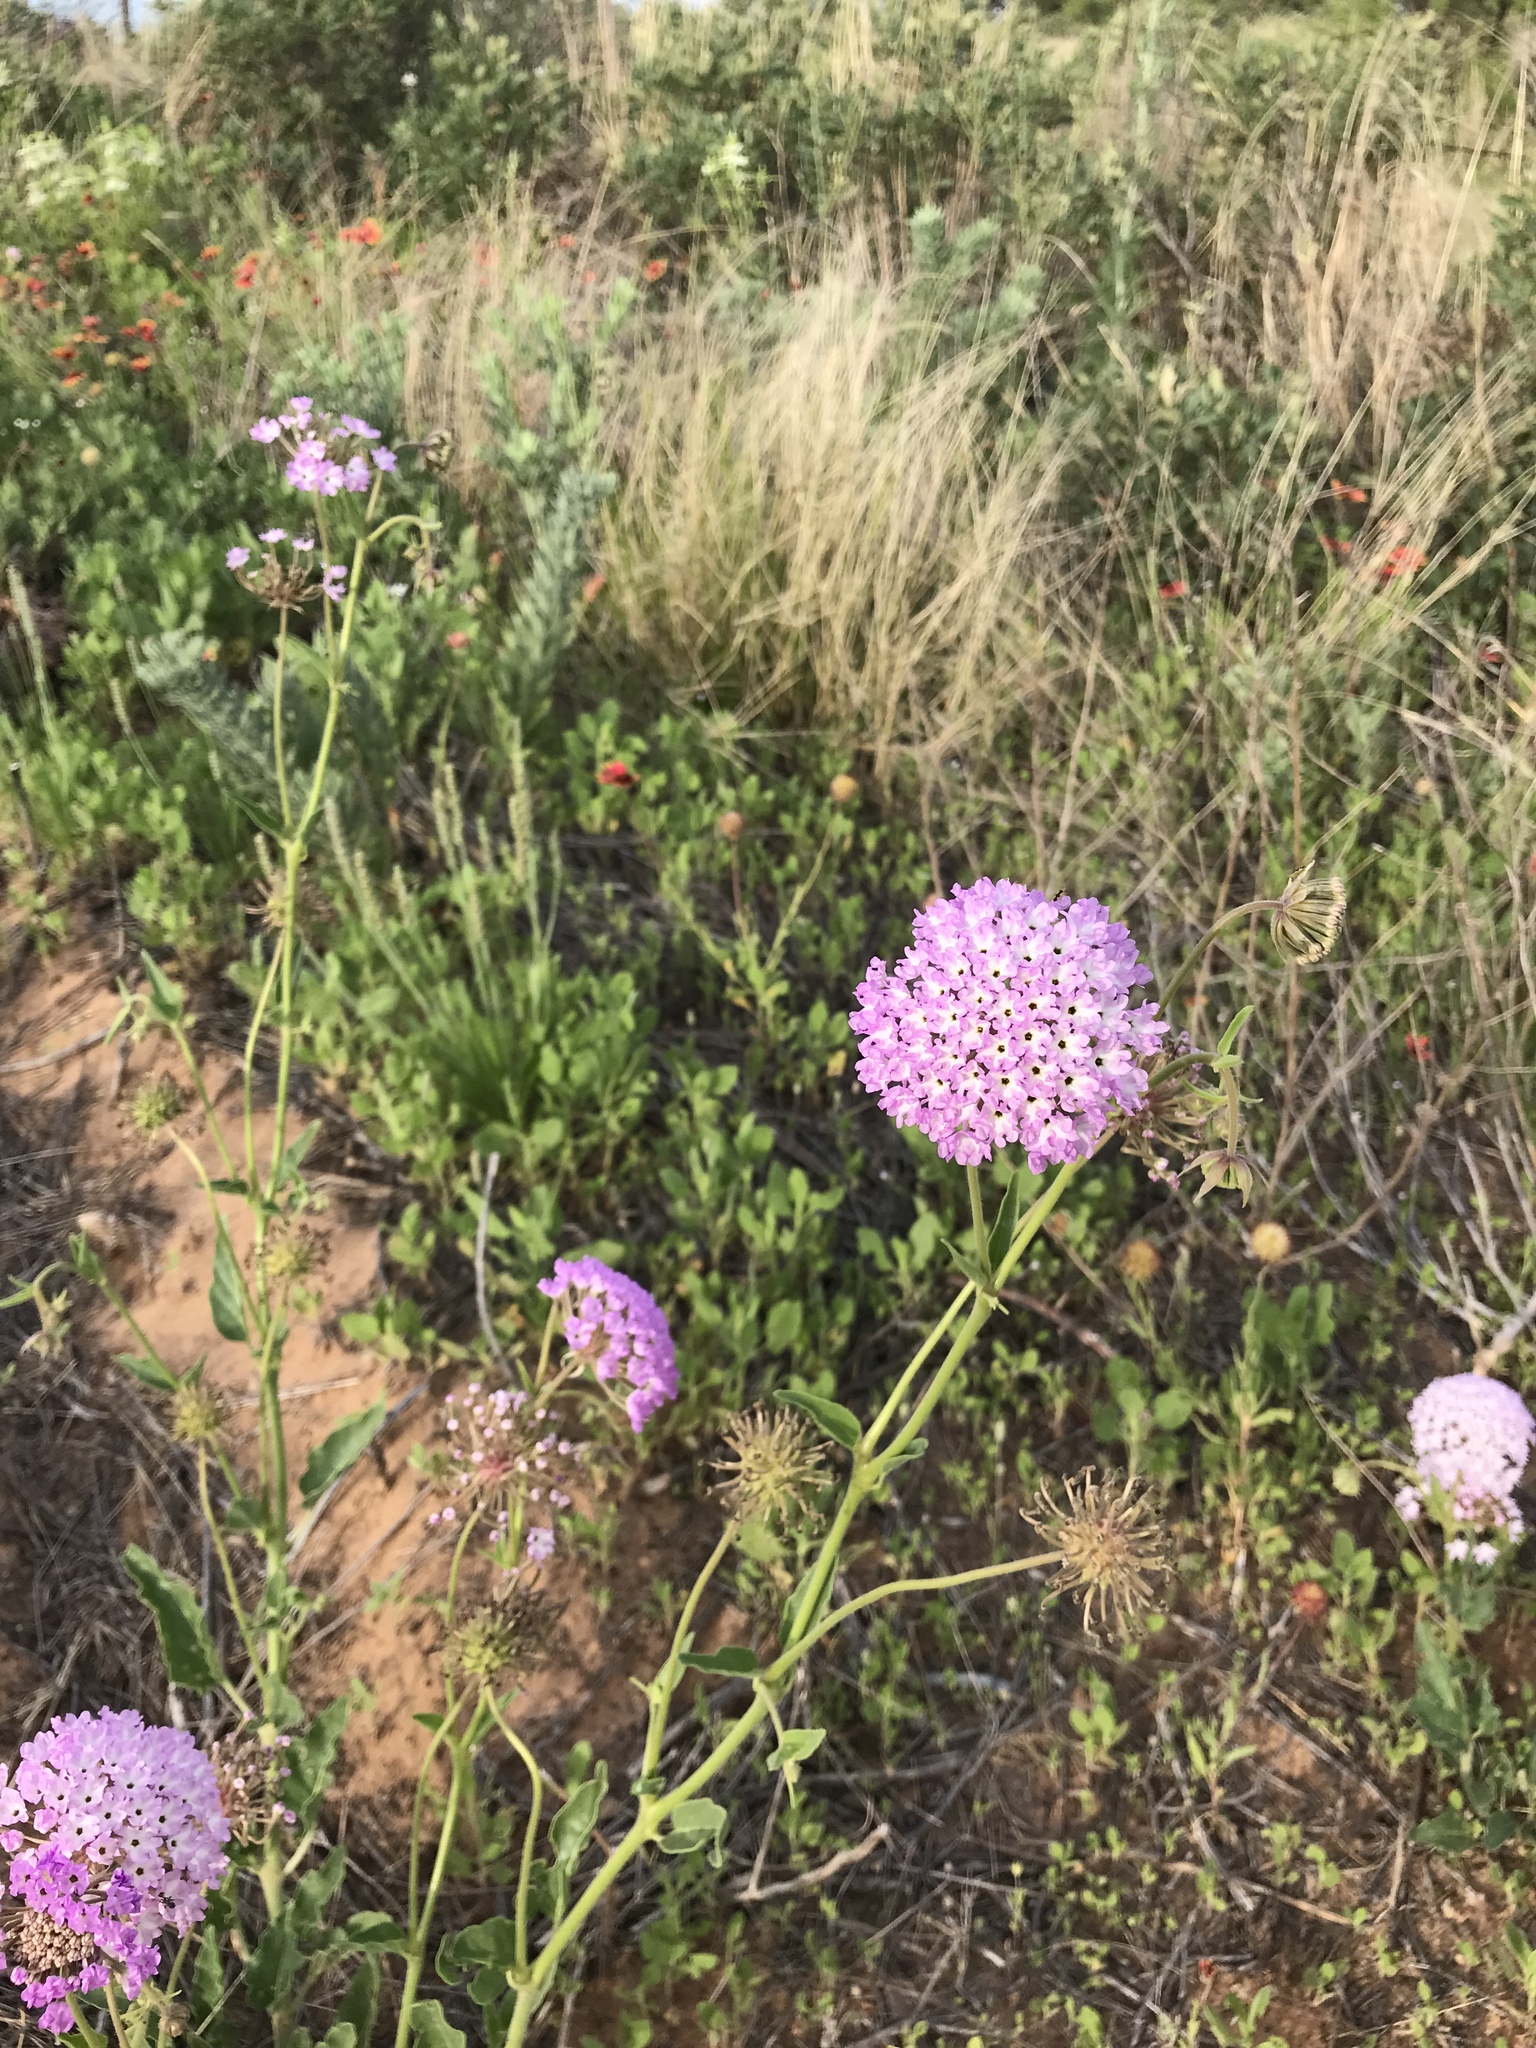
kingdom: Plantae
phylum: Tracheophyta
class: Magnoliopsida
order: Caryophyllales
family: Nyctaginaceae
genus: Abronia
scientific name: Abronia fragrans
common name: Fragrant sand-verbena
